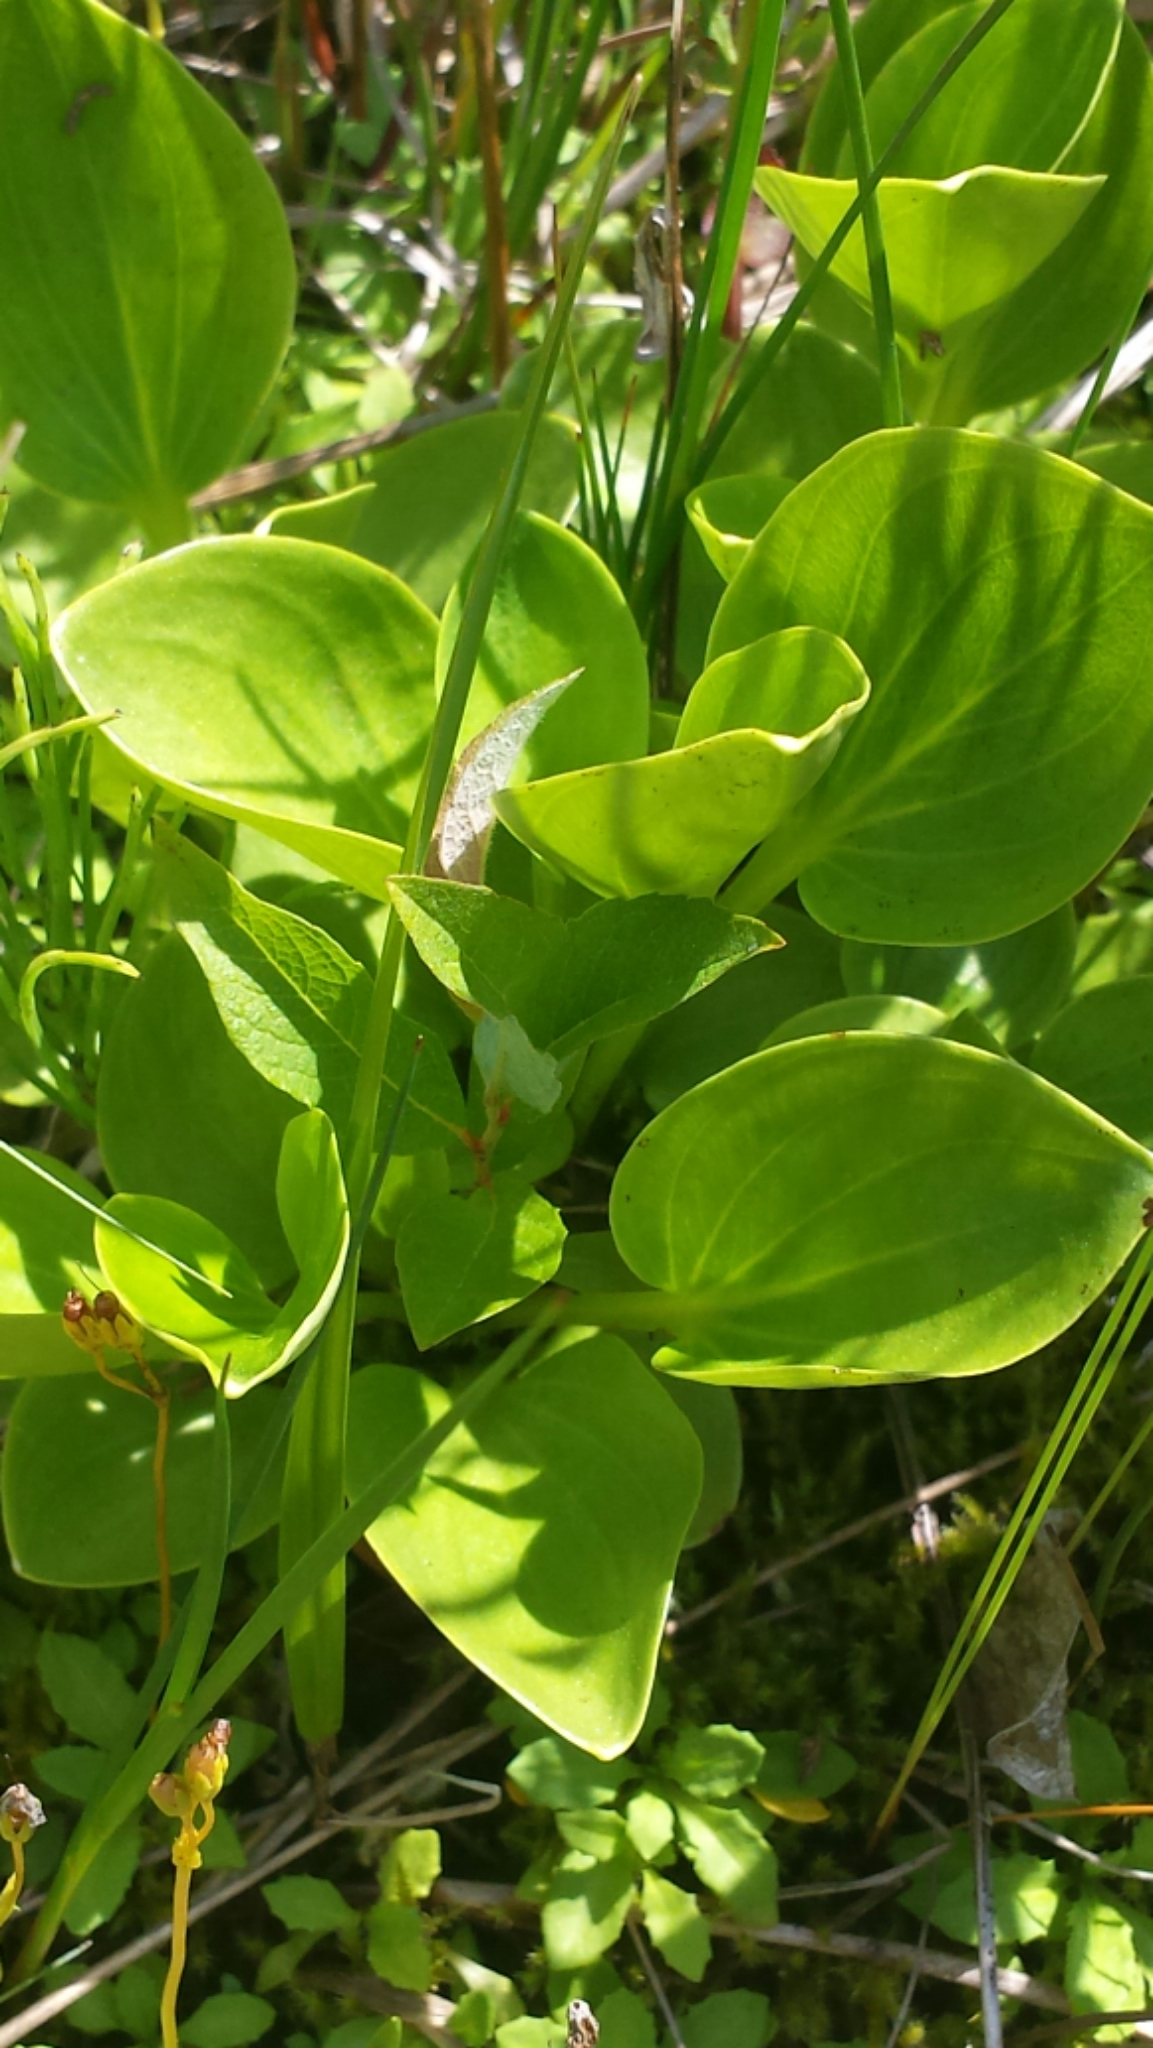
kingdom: Plantae
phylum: Tracheophyta
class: Magnoliopsida
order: Celastrales
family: Parnassiaceae
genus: Parnassia
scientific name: Parnassia glauca
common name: American grass-of-parnassus
